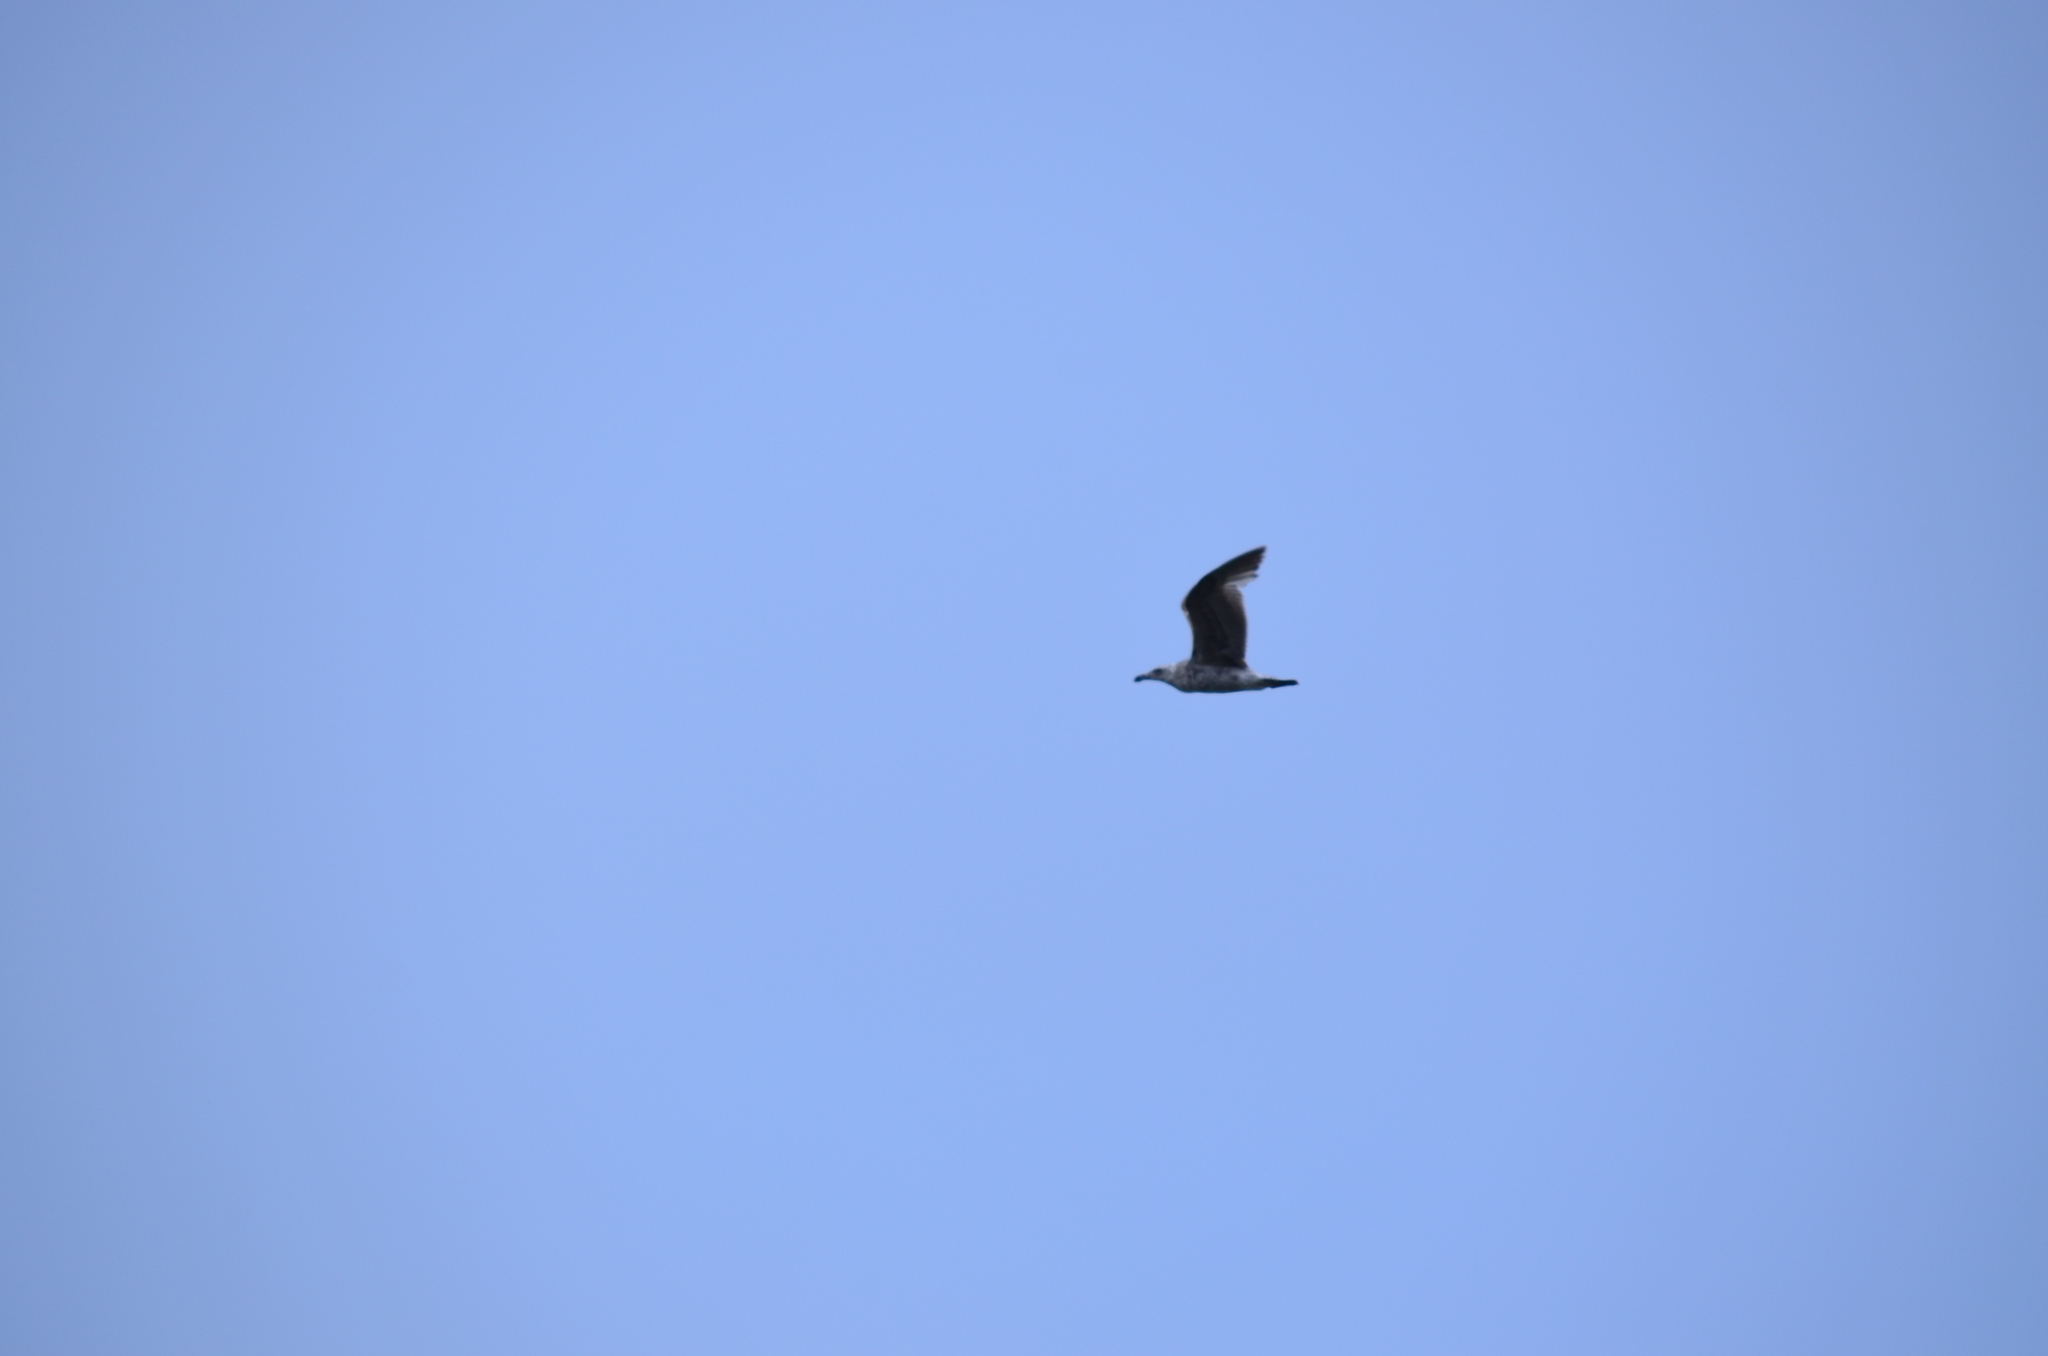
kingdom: Animalia
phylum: Chordata
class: Aves
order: Charadriiformes
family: Laridae
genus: Larus
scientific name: Larus occidentalis
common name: Western gull
